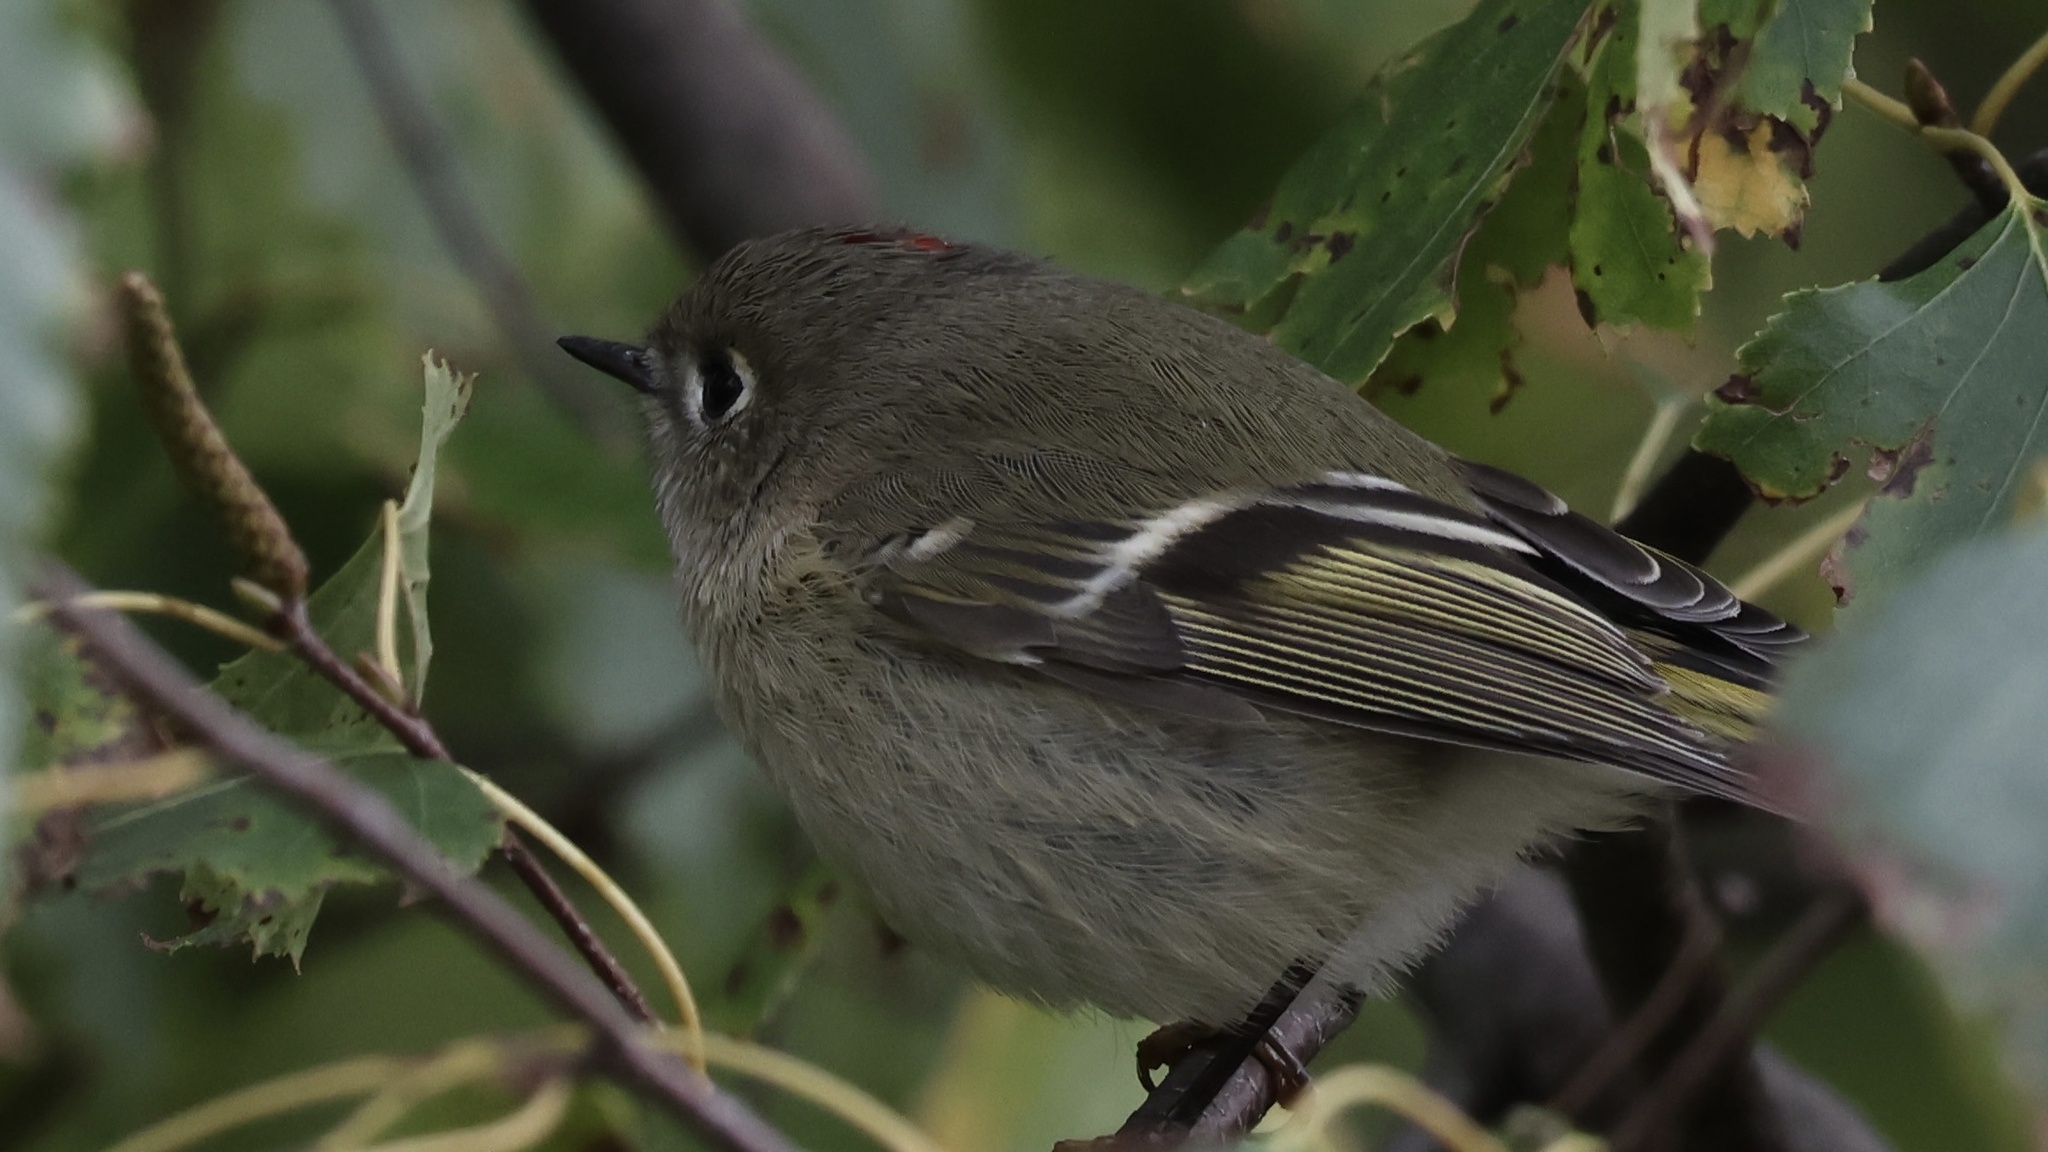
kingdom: Animalia
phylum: Chordata
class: Aves
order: Passeriformes
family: Regulidae
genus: Regulus
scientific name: Regulus calendula
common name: Ruby-crowned kinglet
